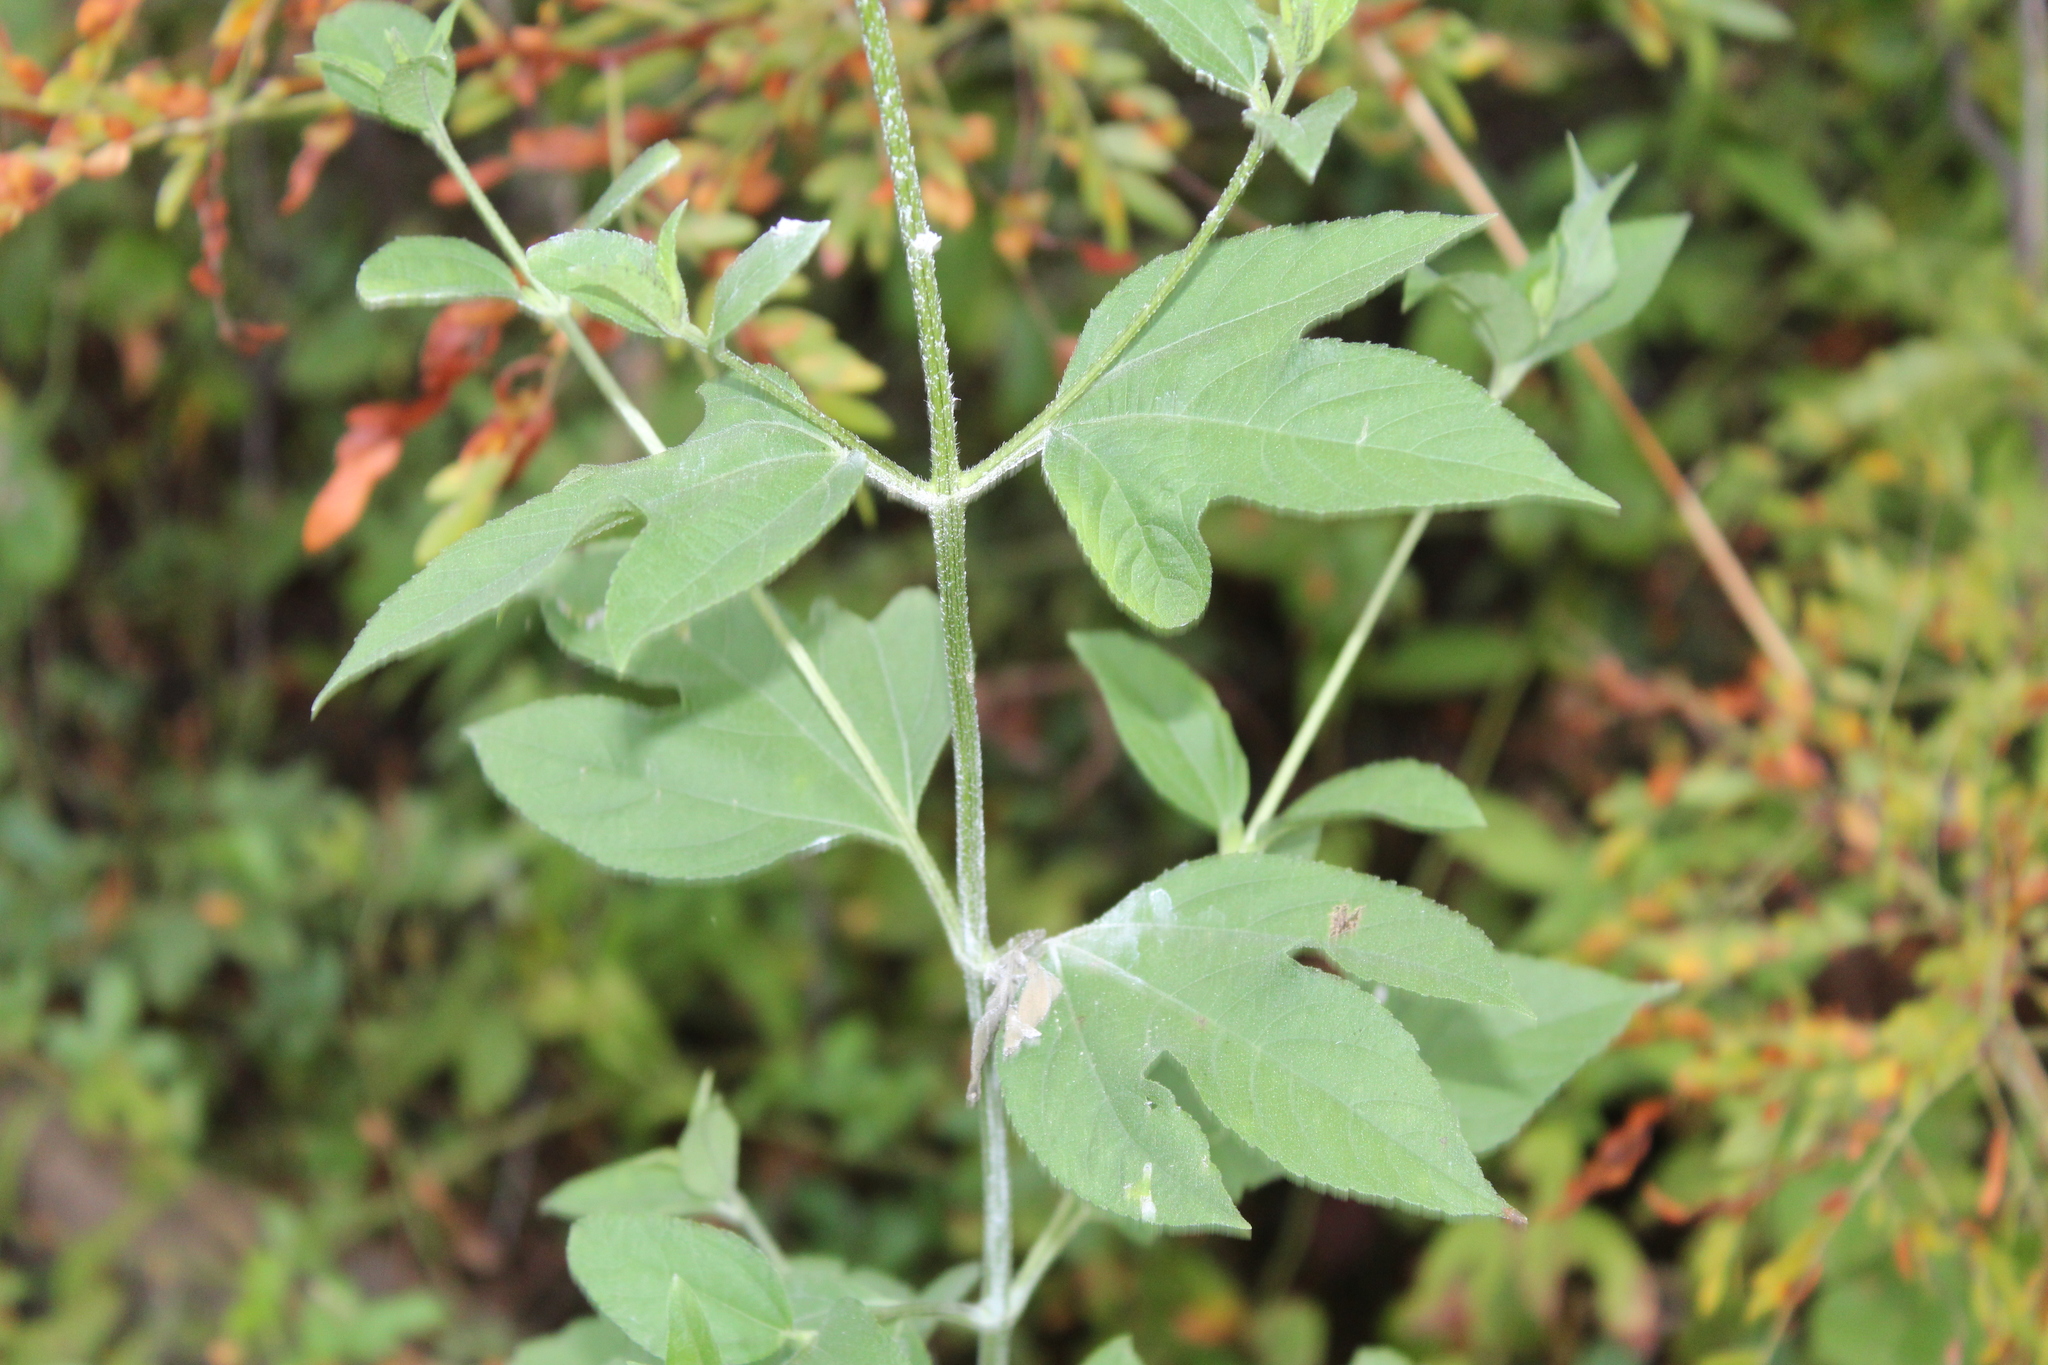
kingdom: Plantae
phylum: Tracheophyta
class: Magnoliopsida
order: Asterales
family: Asteraceae
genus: Ambrosia
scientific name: Ambrosia trifida
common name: Giant ragweed
